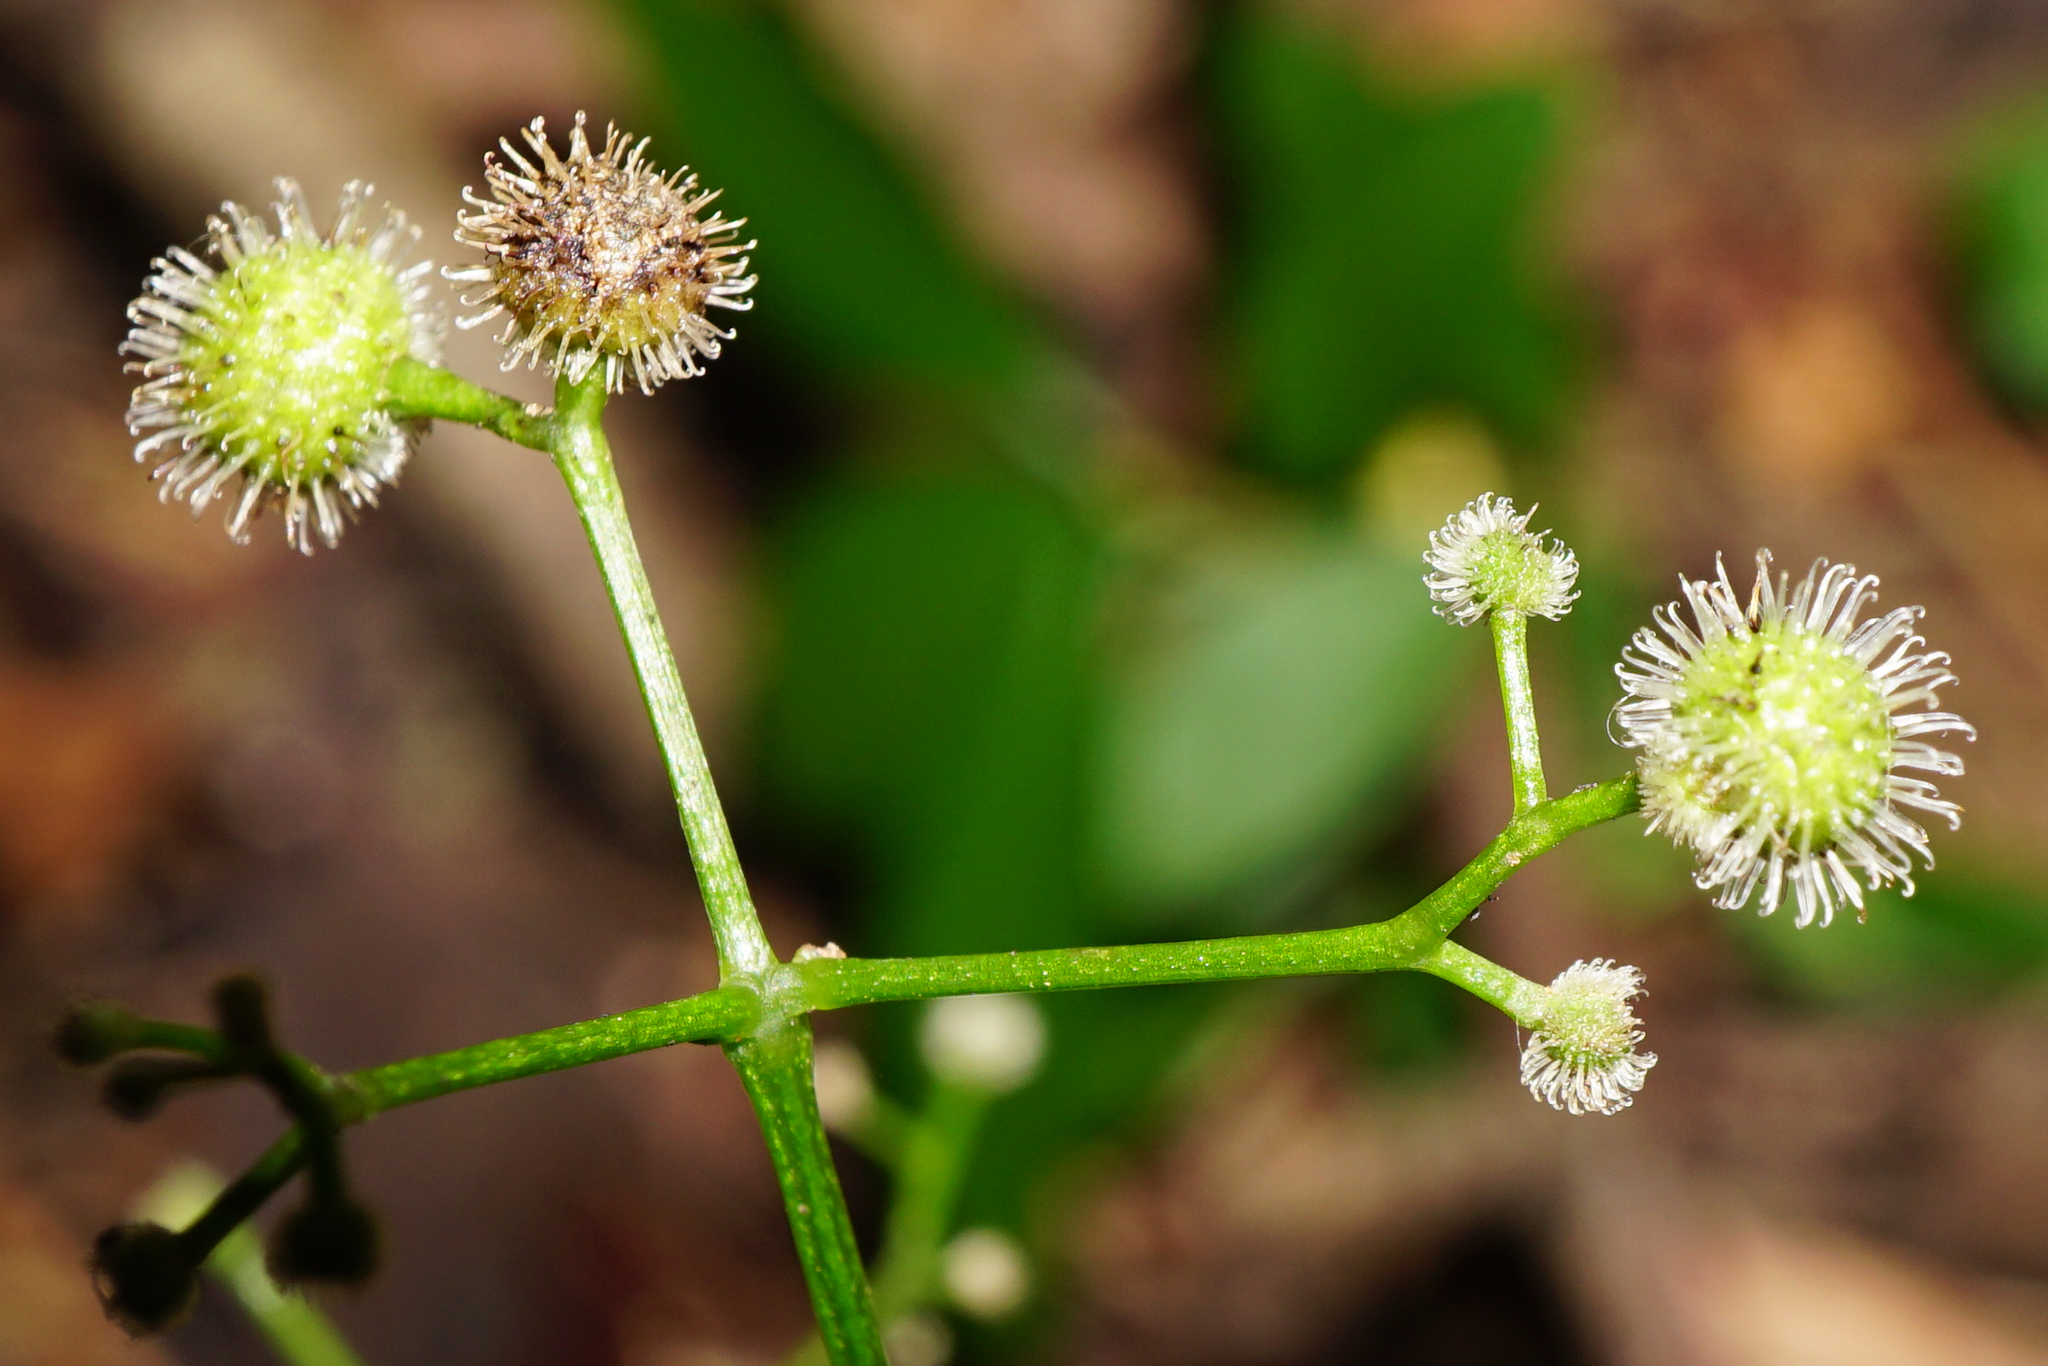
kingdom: Plantae
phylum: Tracheophyta
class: Magnoliopsida
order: Gentianales
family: Rubiaceae
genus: Galium
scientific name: Galium odoratum
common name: Sweet woodruff
